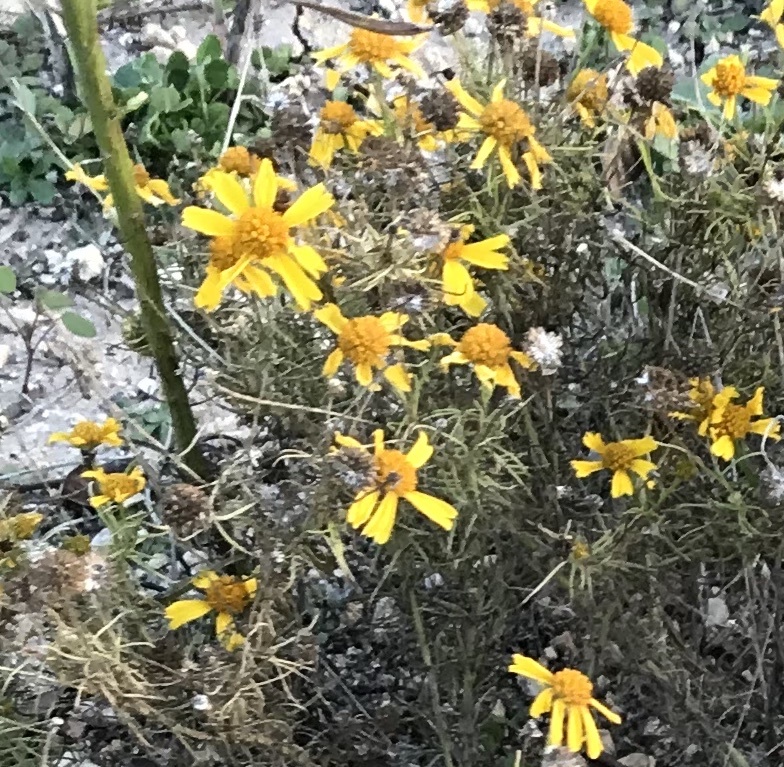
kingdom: Plantae
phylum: Tracheophyta
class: Magnoliopsida
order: Asterales
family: Asteraceae
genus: Helenium
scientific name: Helenium amarum
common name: Bitter sneezeweed
